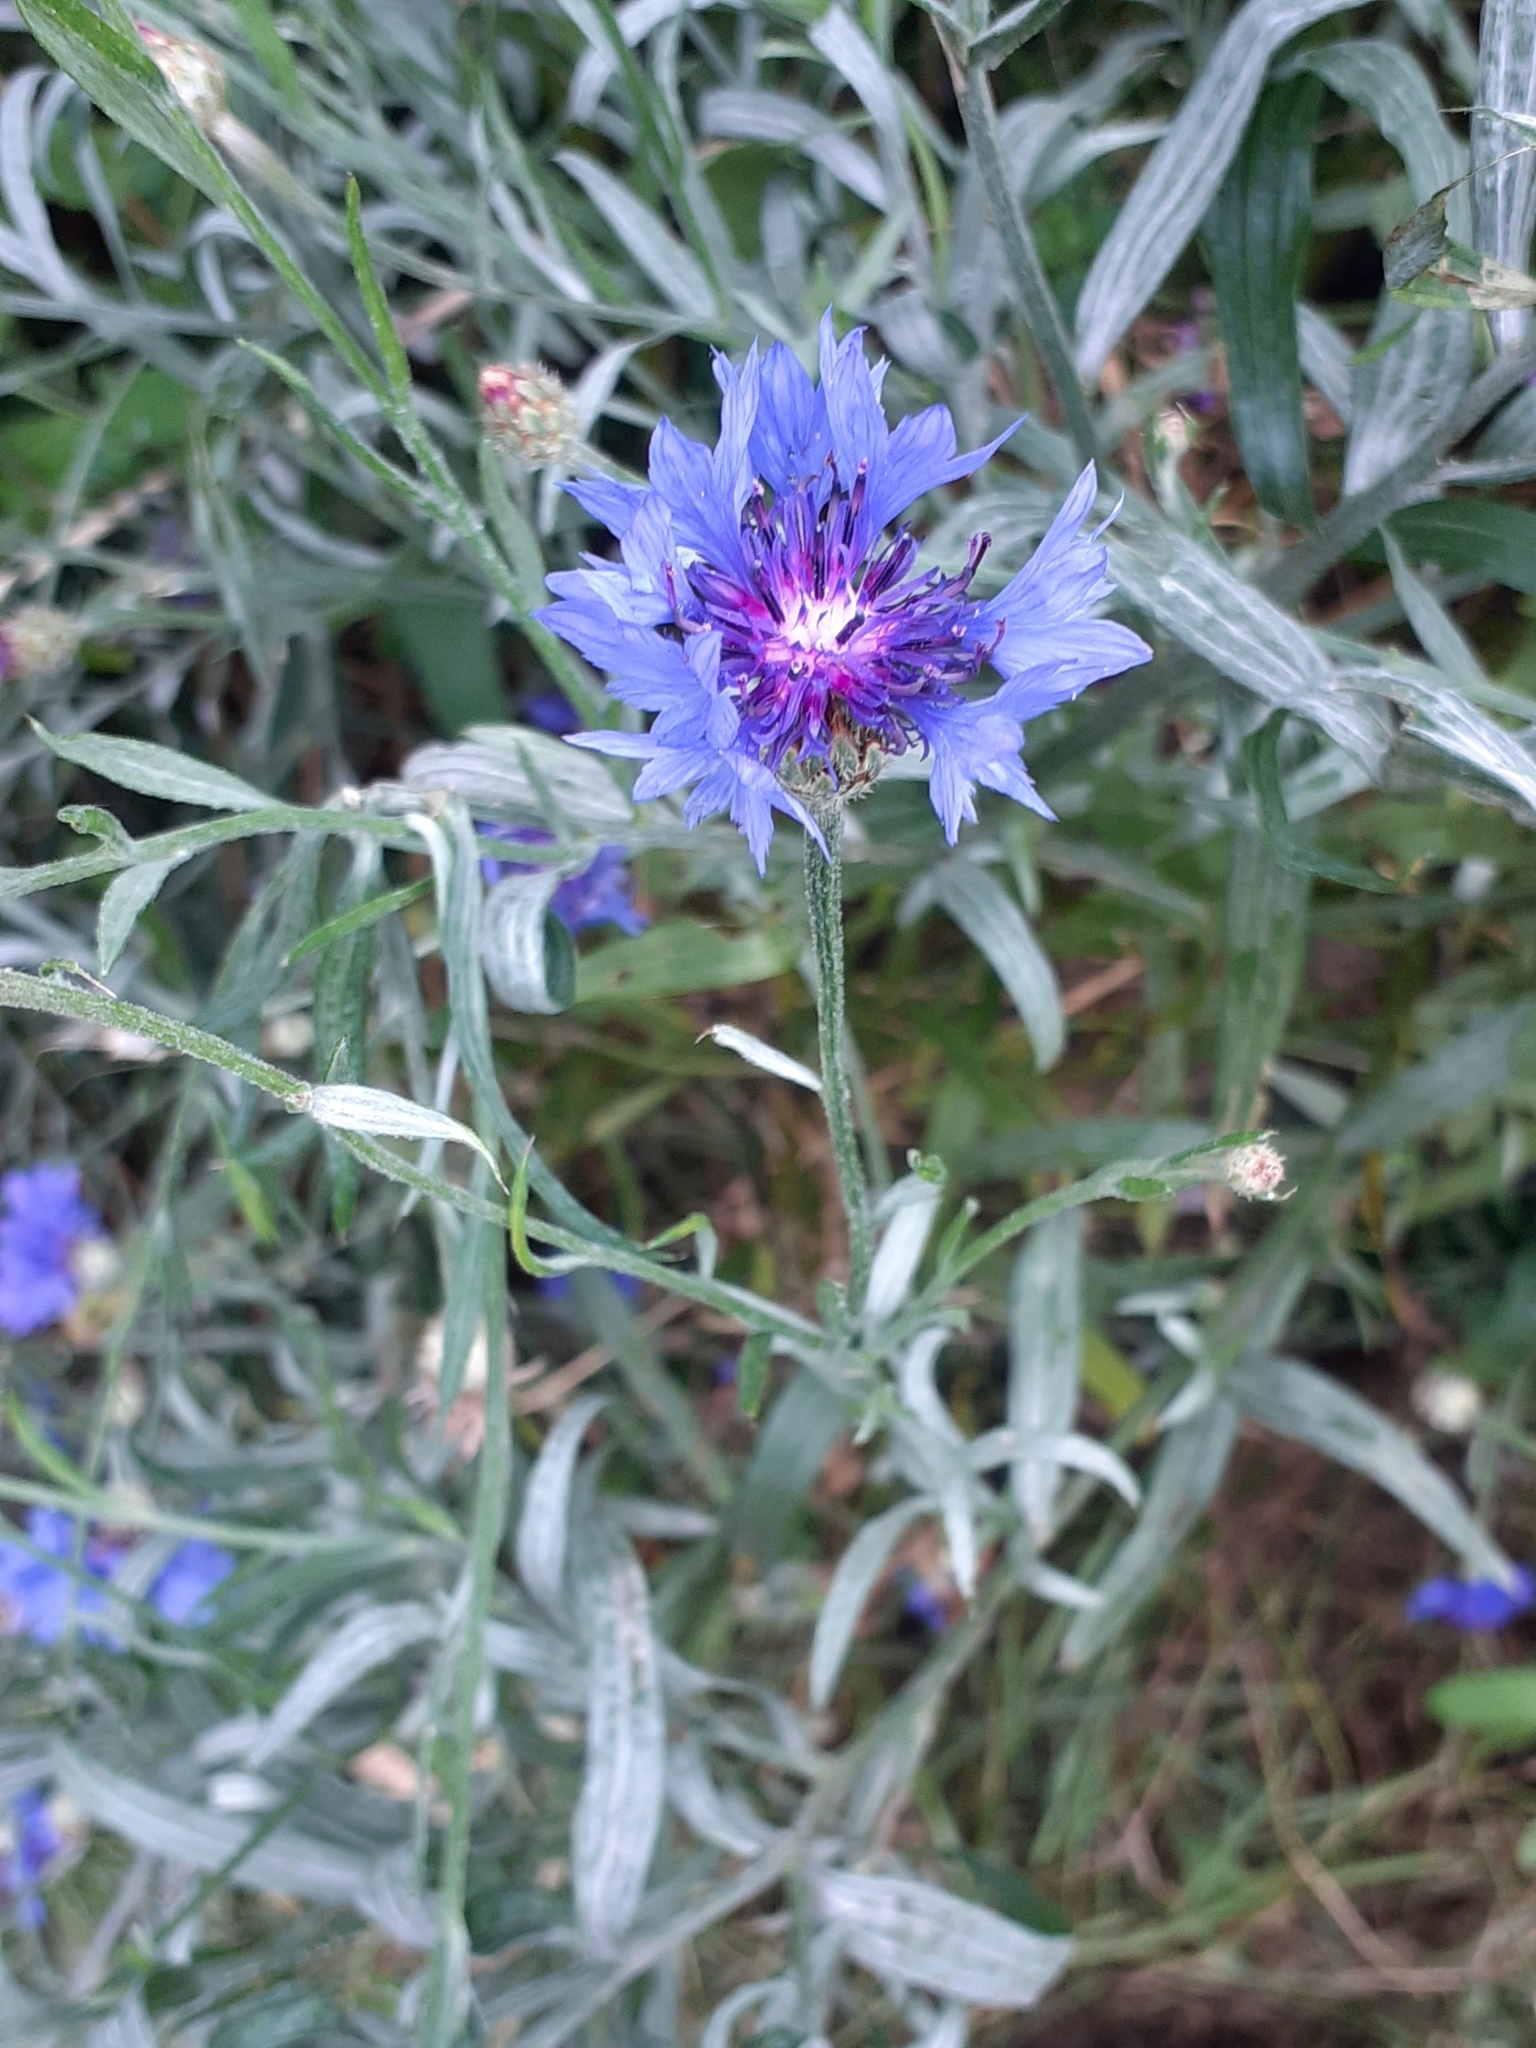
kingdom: Plantae
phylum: Tracheophyta
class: Magnoliopsida
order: Asterales
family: Asteraceae
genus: Centaurea
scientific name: Centaurea cyanus
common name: Cornflower
